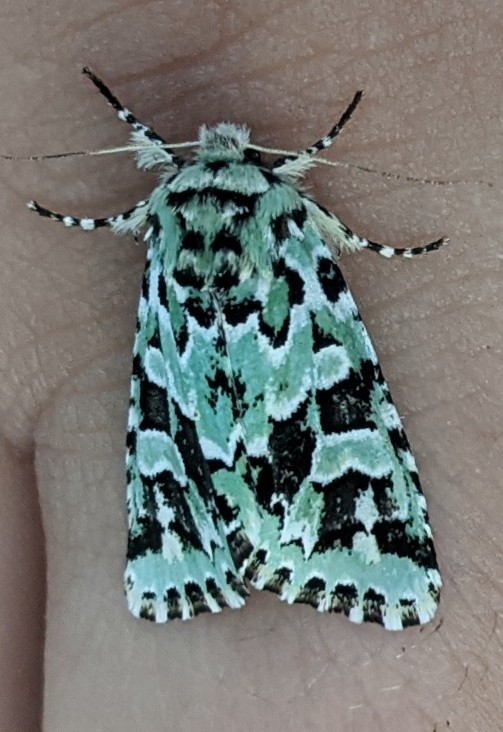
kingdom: Animalia
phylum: Arthropoda
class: Insecta
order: Lepidoptera
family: Noctuidae
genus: Feralia
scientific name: Feralia comstocki
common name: Comstock's sallow
